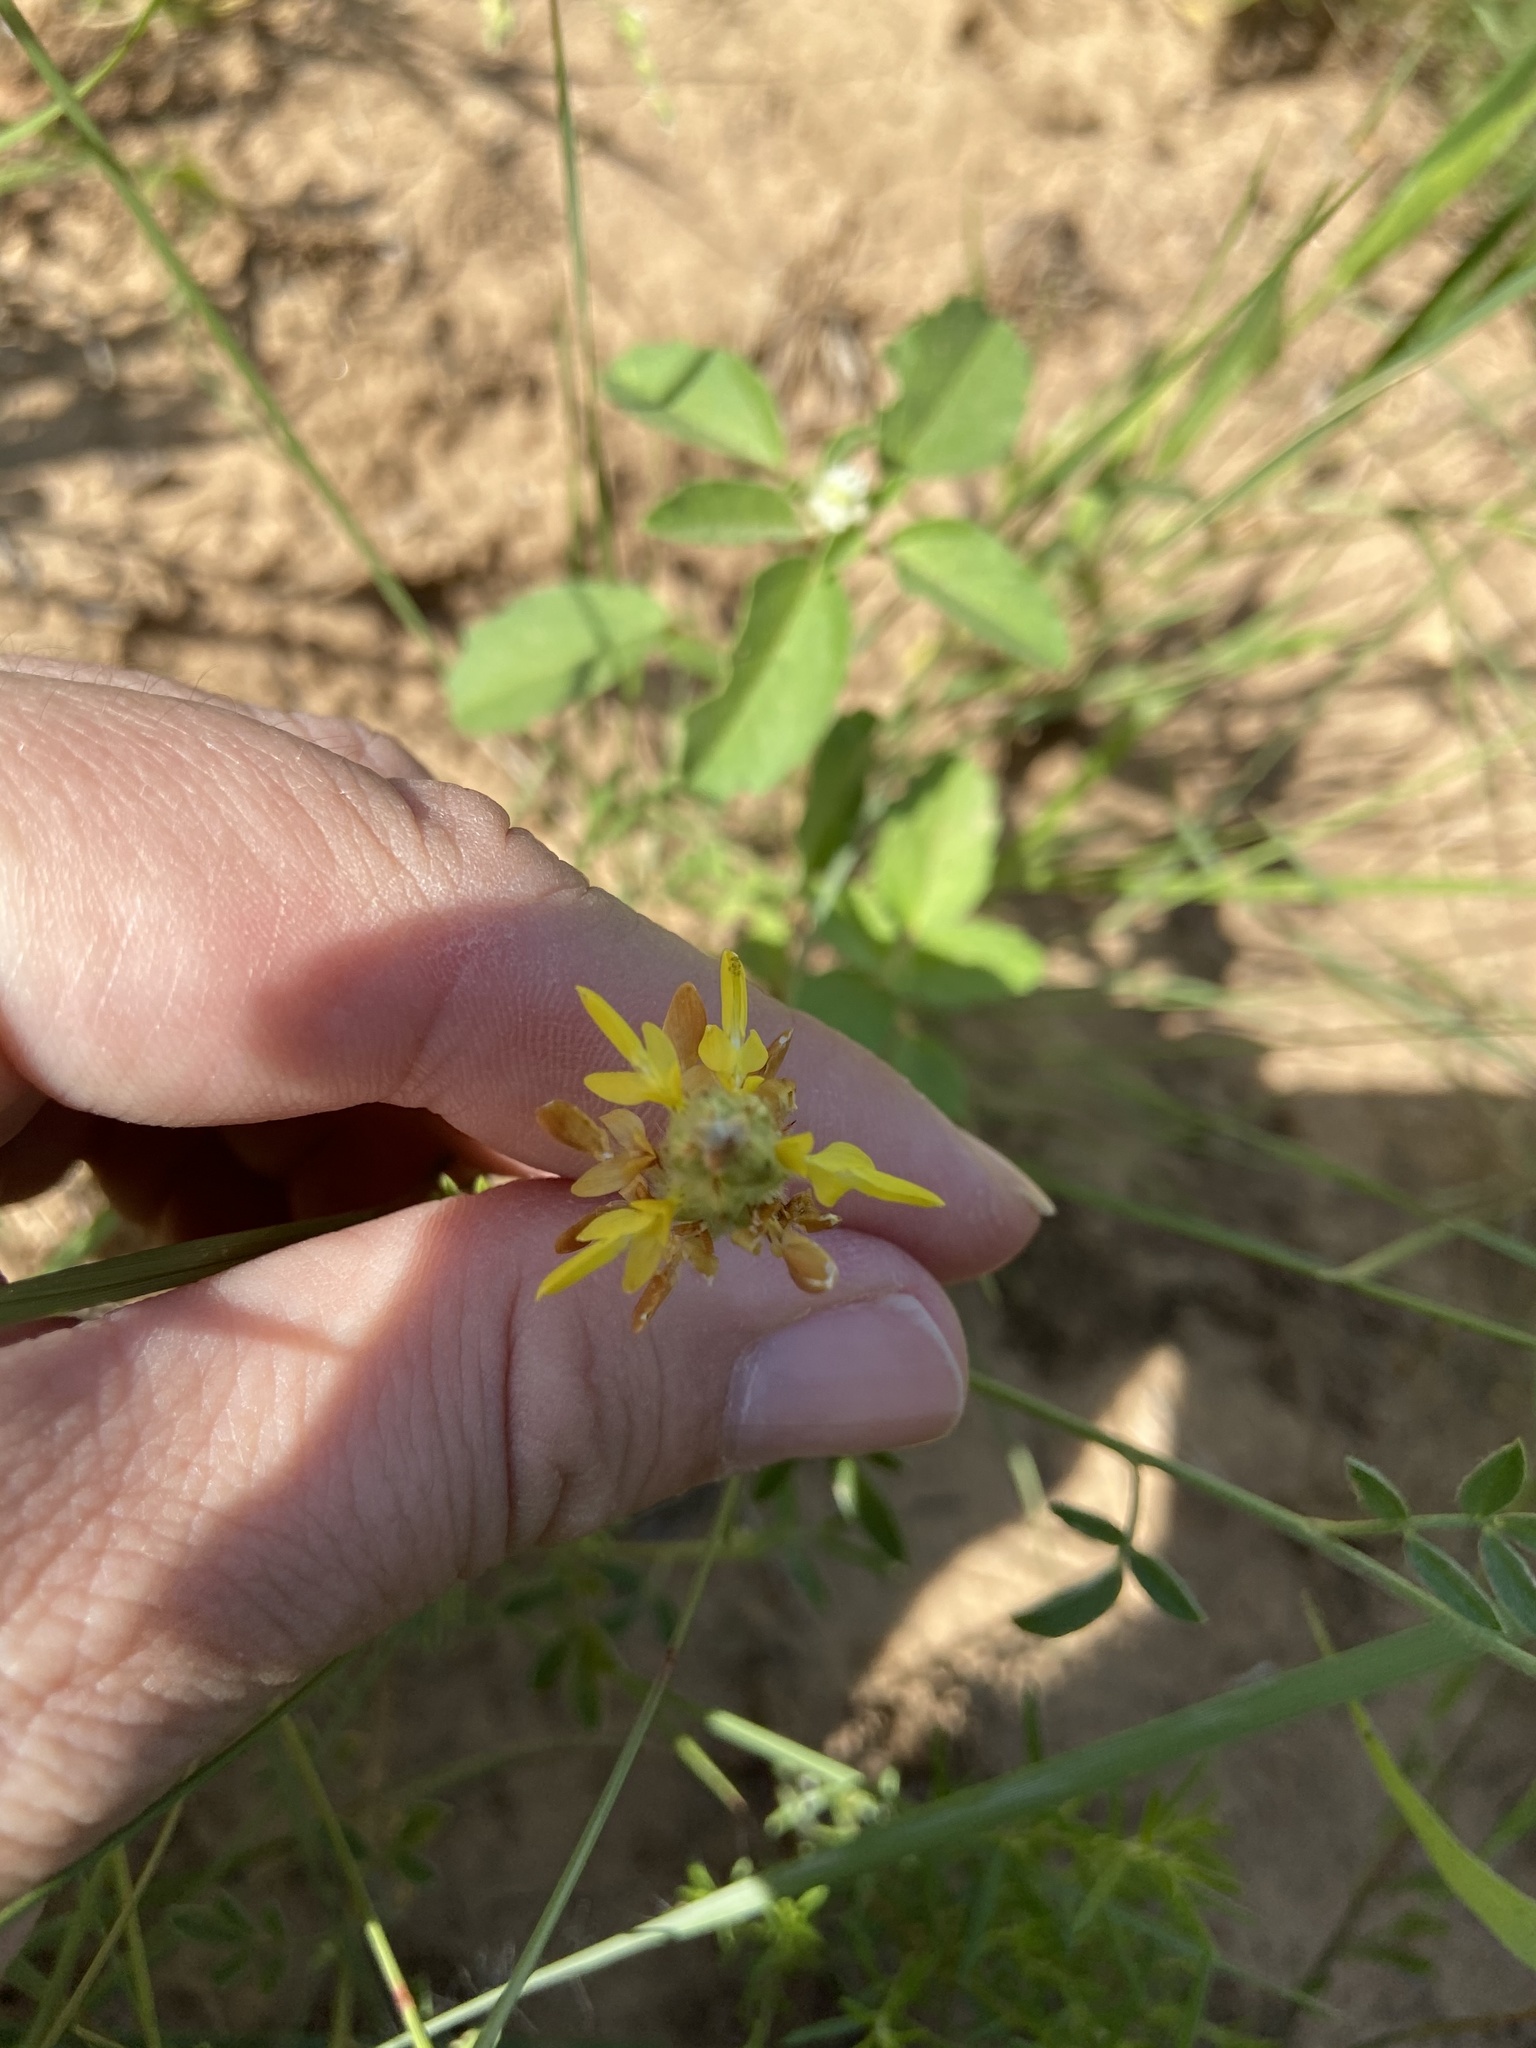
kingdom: Plantae
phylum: Tracheophyta
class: Magnoliopsida
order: Fabales
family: Fabaceae
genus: Dalea
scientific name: Dalea nana
